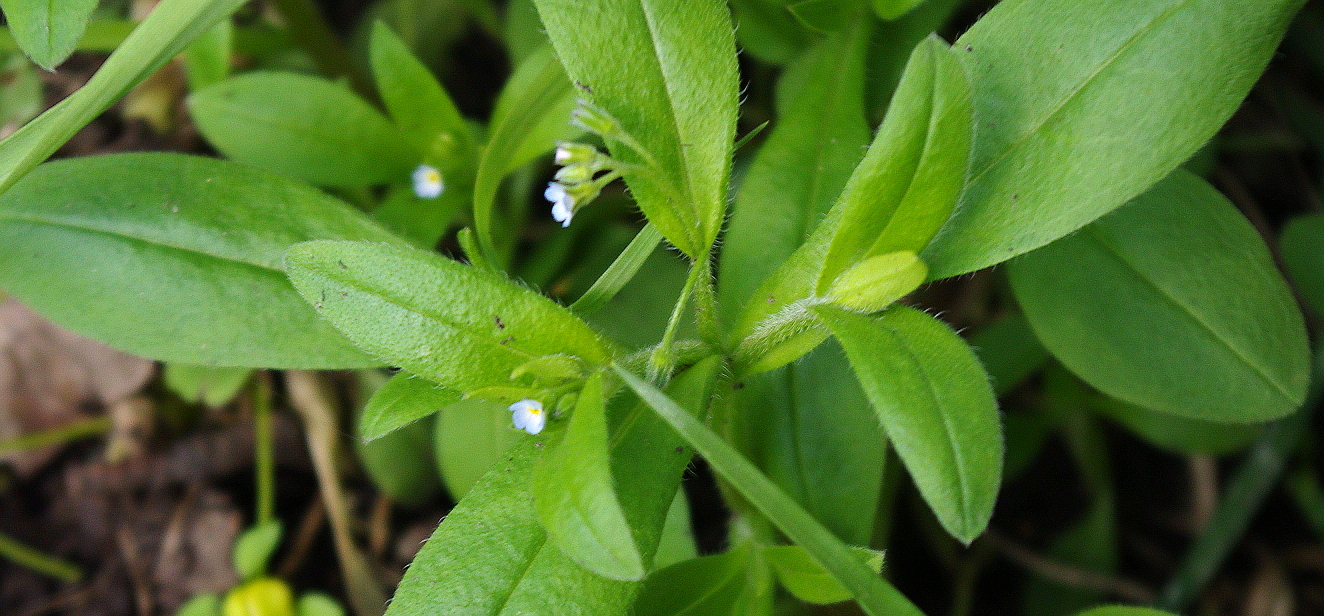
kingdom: Plantae
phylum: Tracheophyta
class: Magnoliopsida
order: Boraginales
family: Boraginaceae
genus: Myosotis
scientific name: Myosotis sparsiflora
